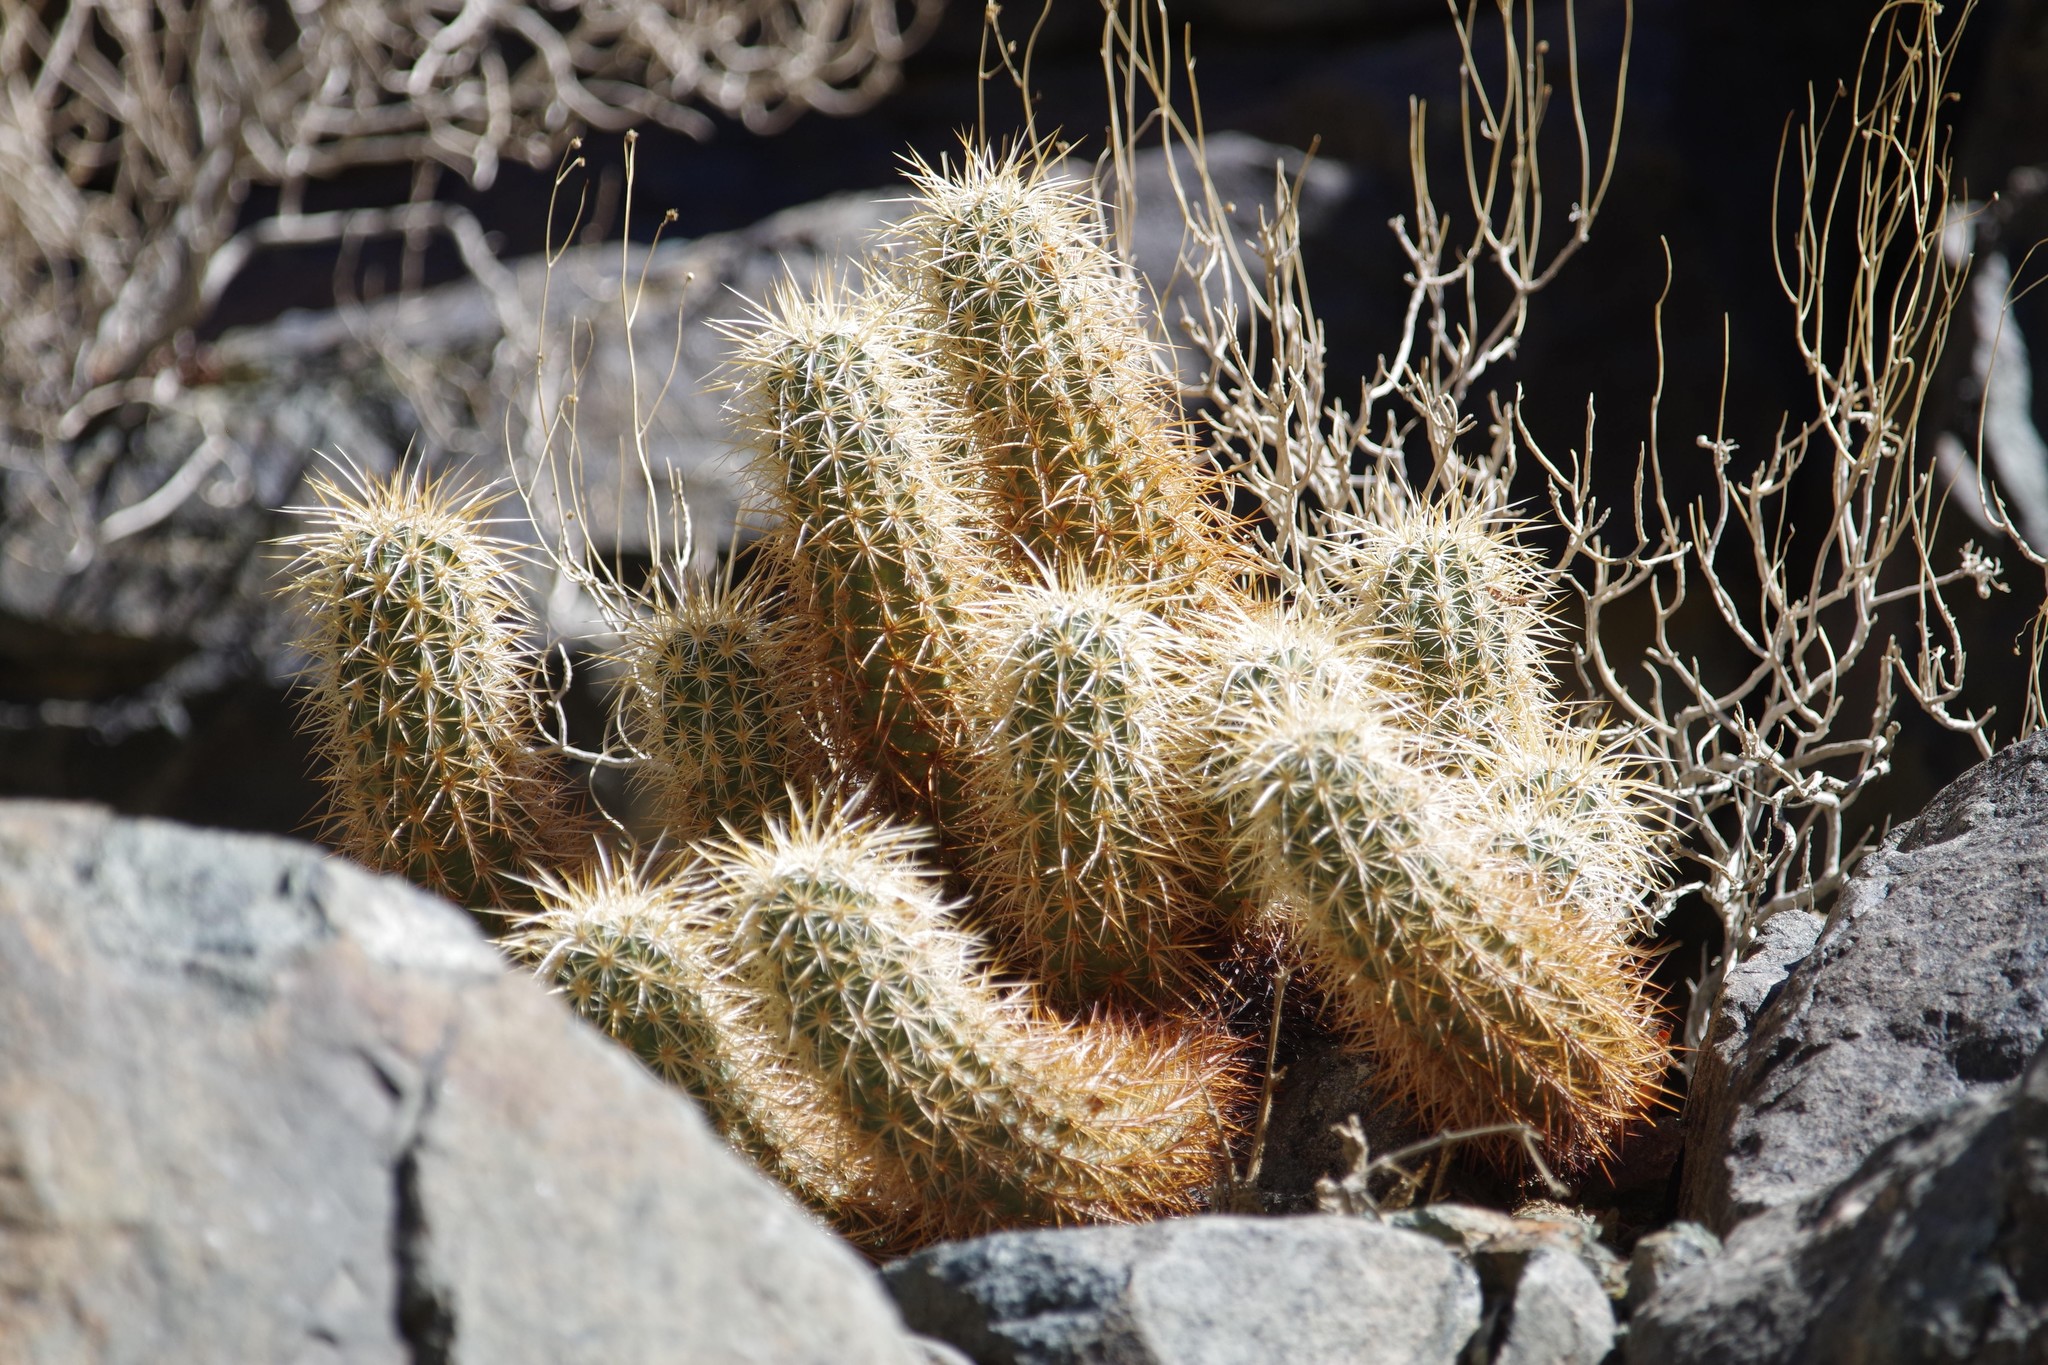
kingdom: Plantae
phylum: Tracheophyta
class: Magnoliopsida
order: Caryophyllales
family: Cactaceae
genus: Echinocereus
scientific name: Echinocereus engelmannii
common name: Engelmann's hedgehog cactus
